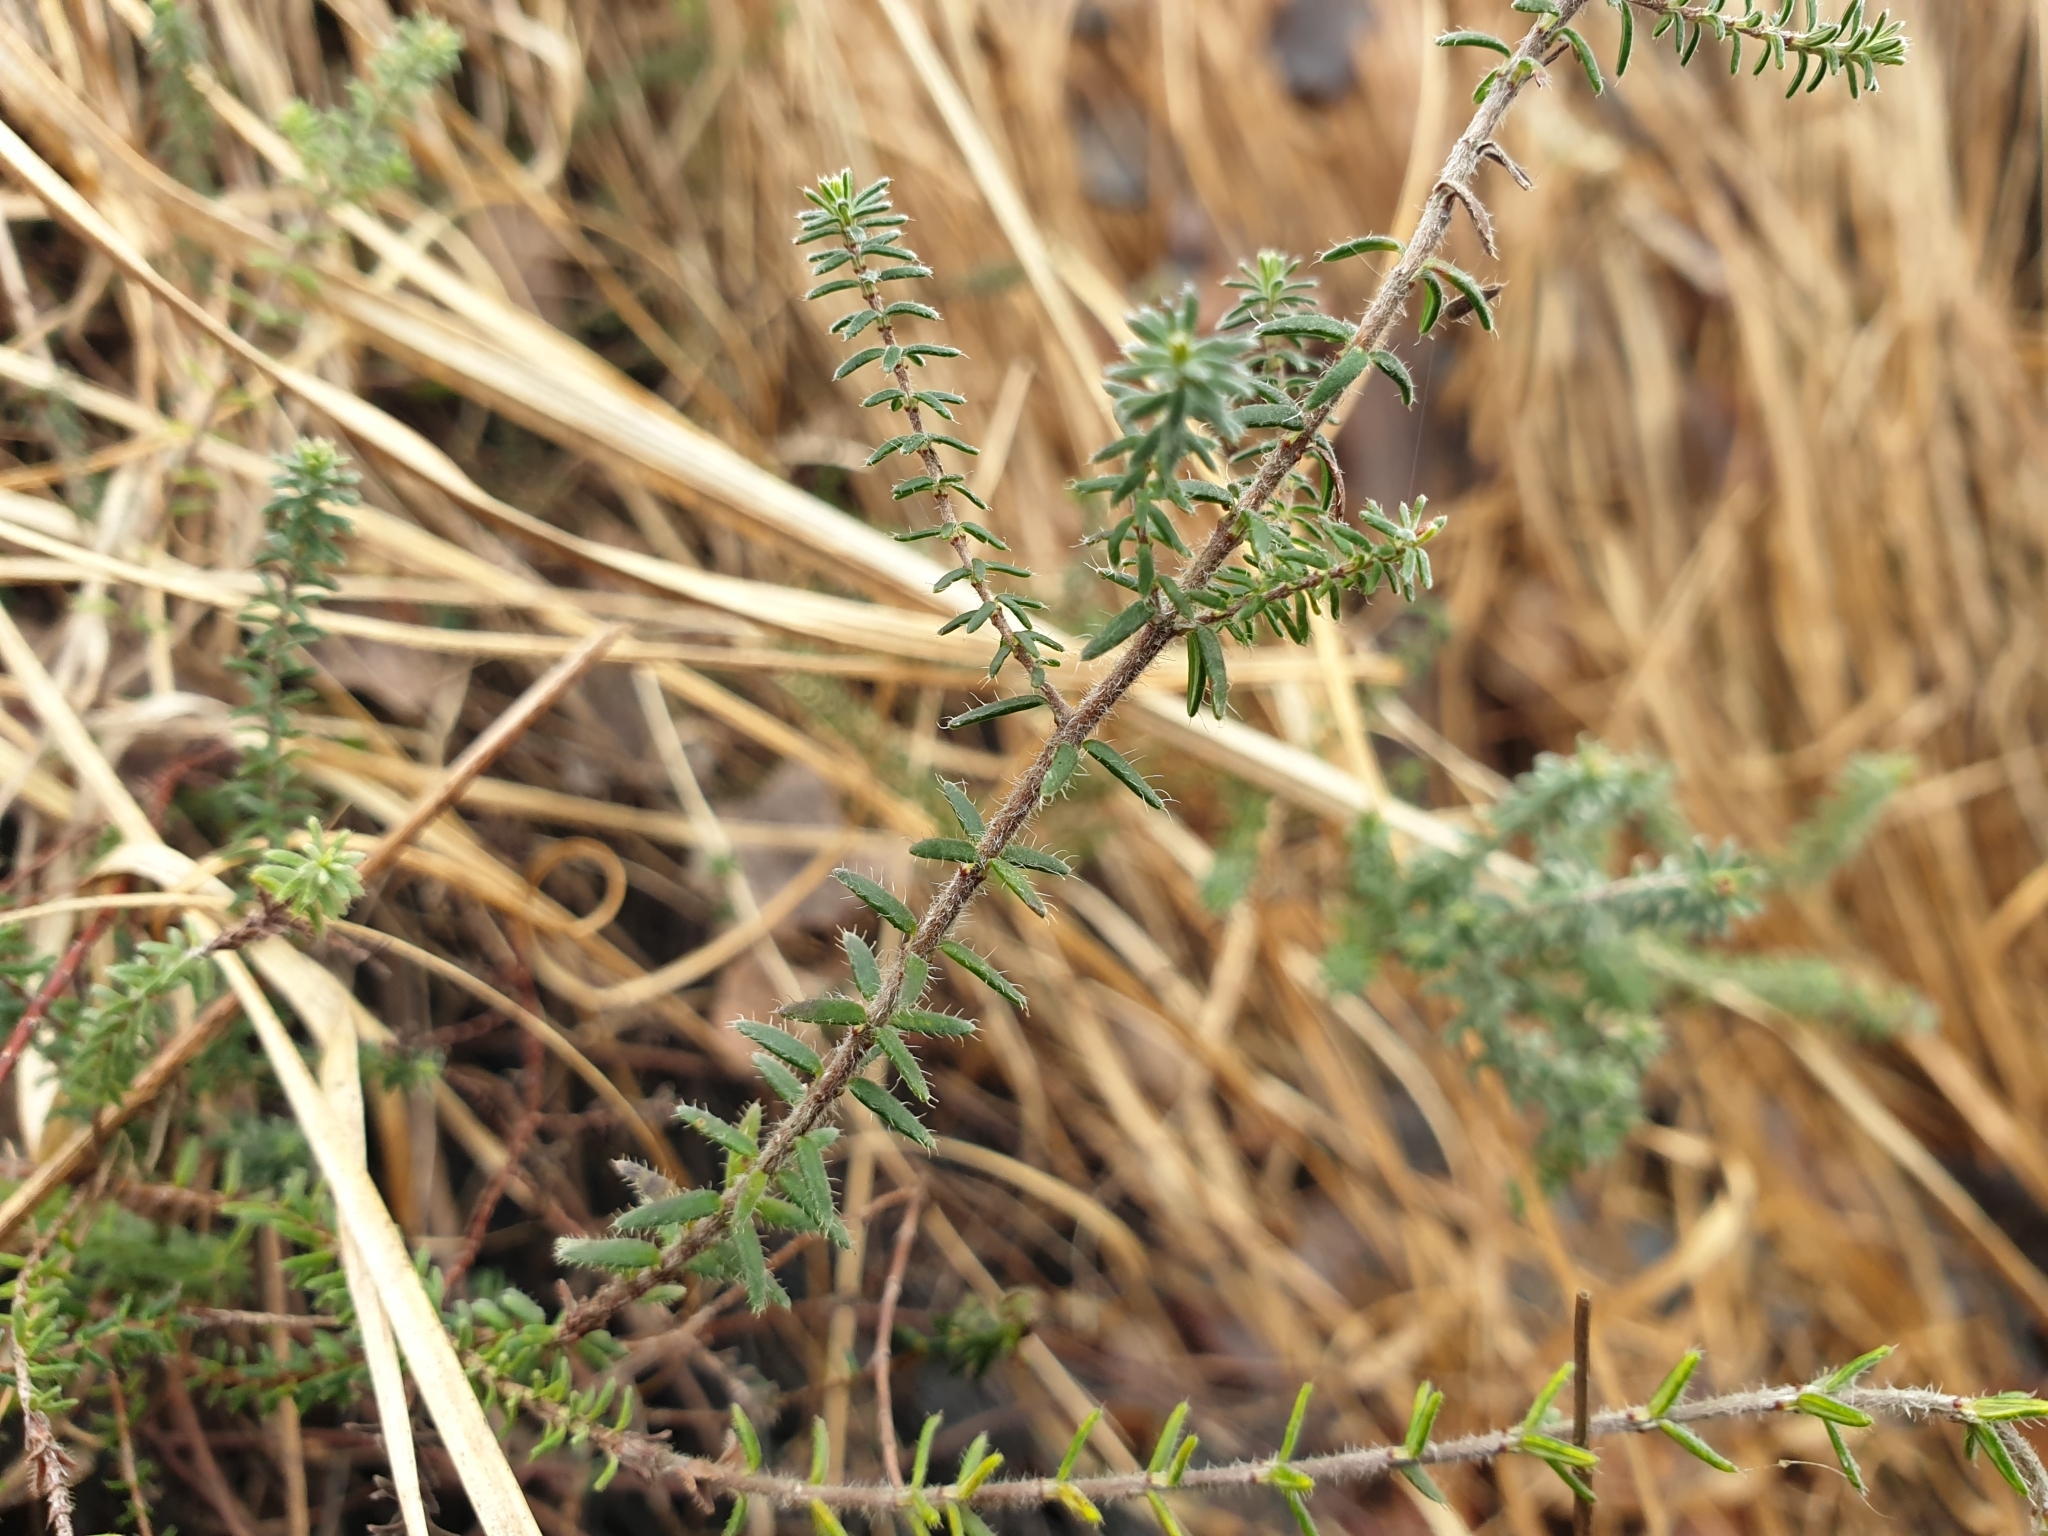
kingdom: Plantae
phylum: Tracheophyta
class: Magnoliopsida
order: Ericales
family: Ericaceae
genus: Erica
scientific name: Erica tetralix
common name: Cross-leaved heath
